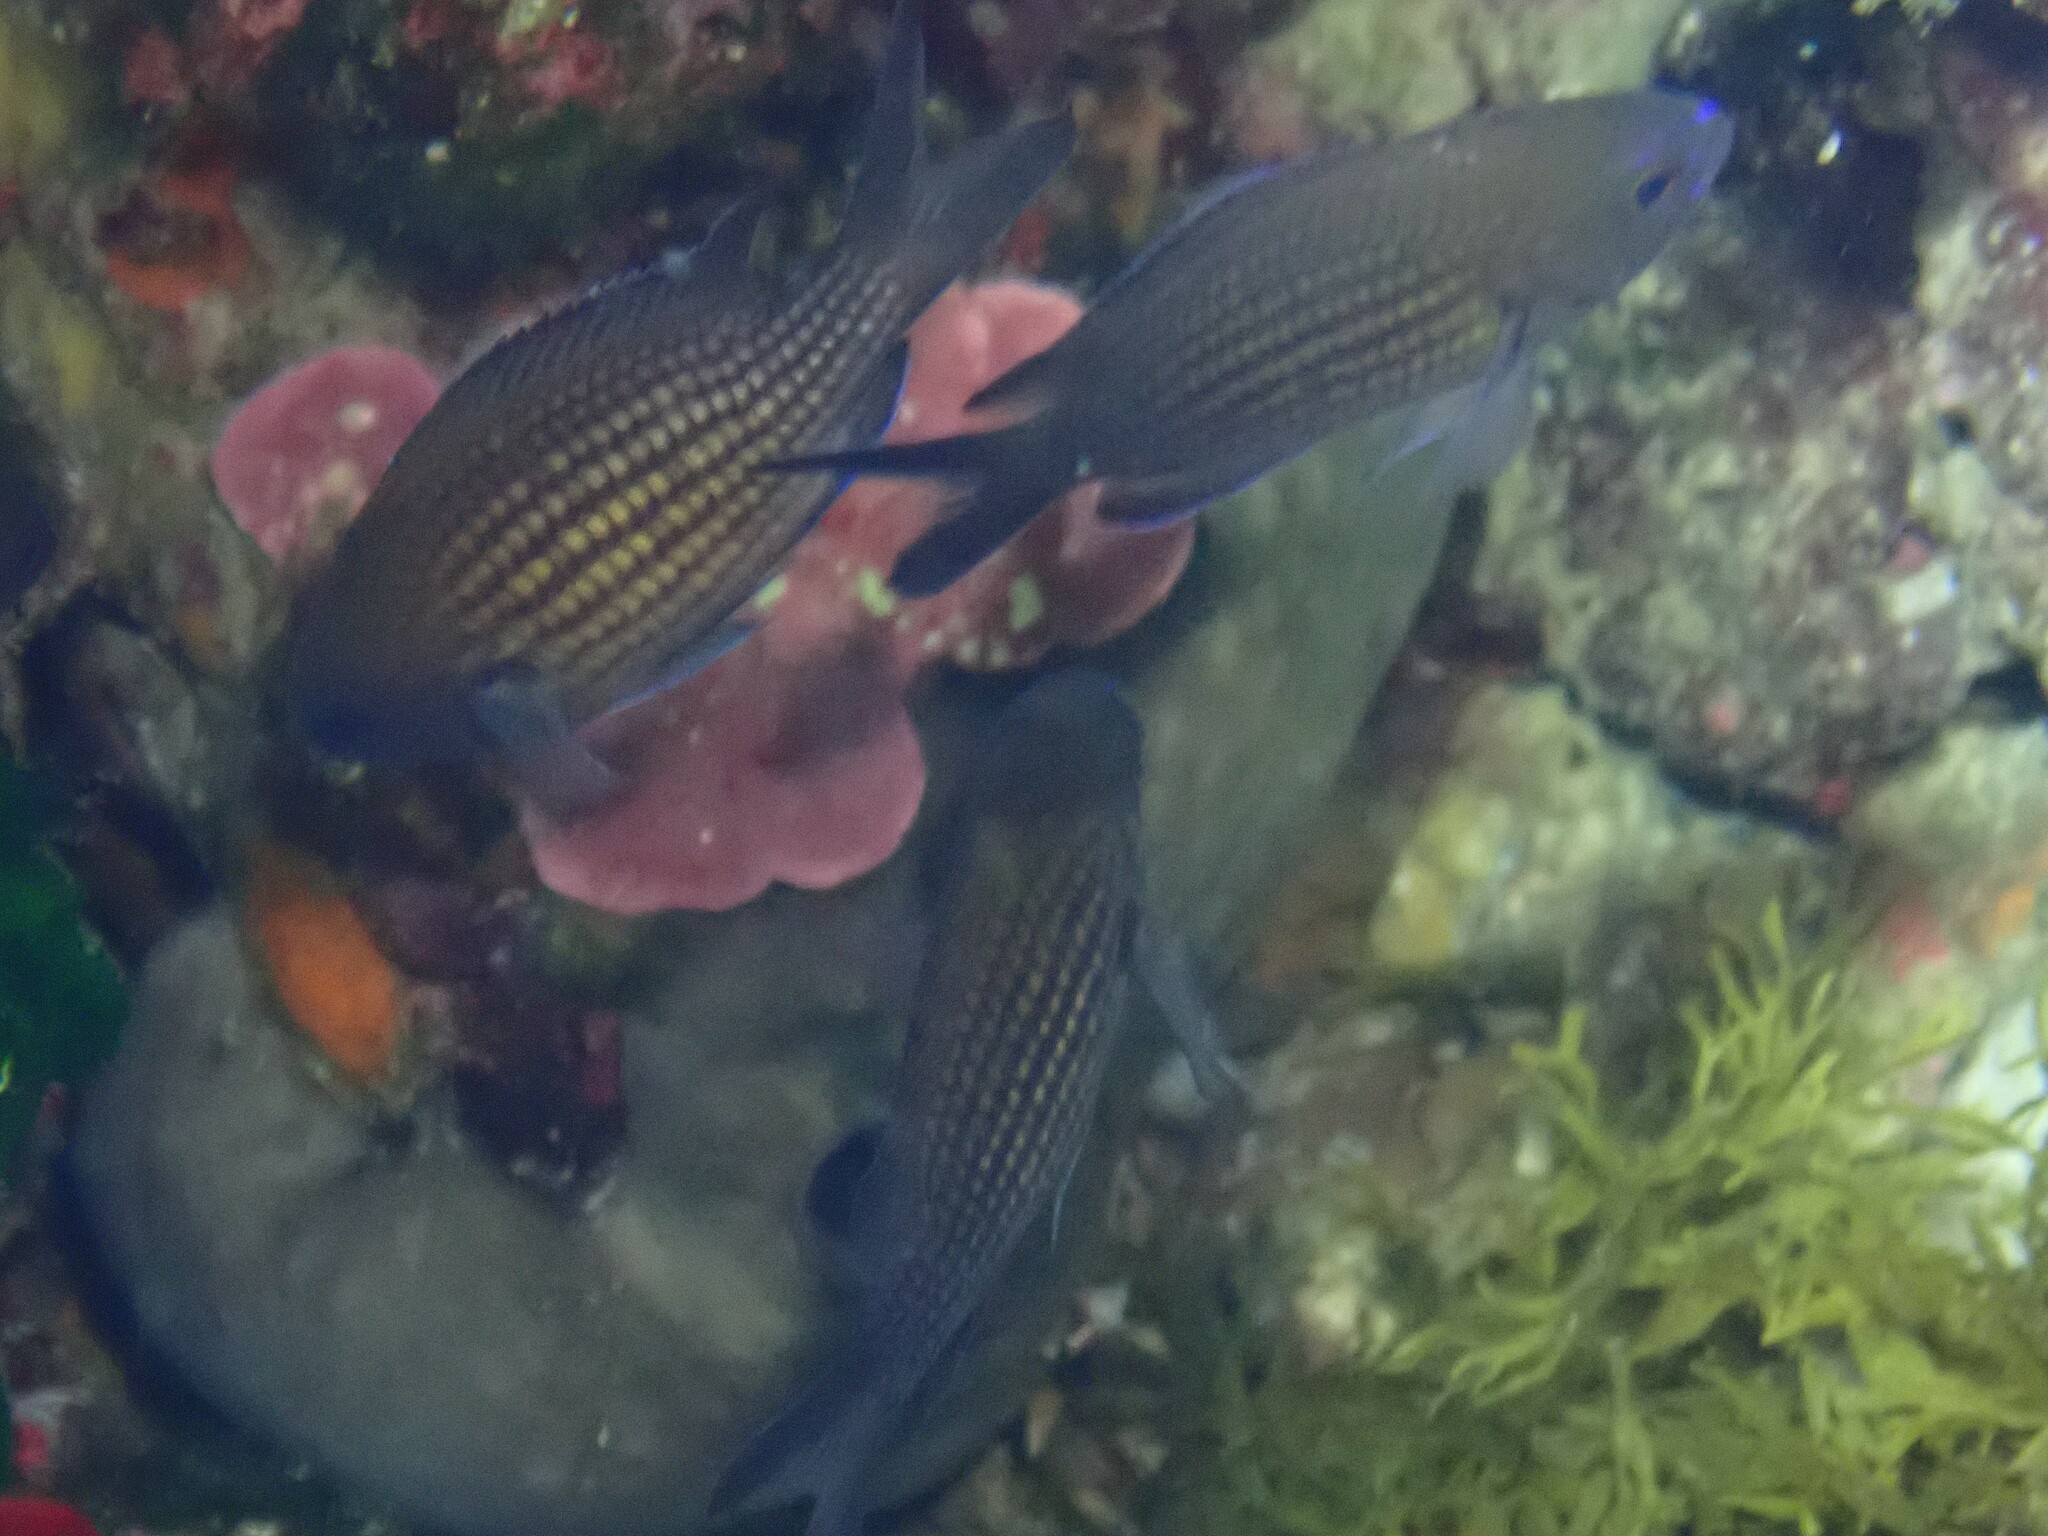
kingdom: Animalia
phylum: Chordata
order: Perciformes
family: Pomacentridae
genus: Chromis
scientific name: Chromis chromis
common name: Damselfish
